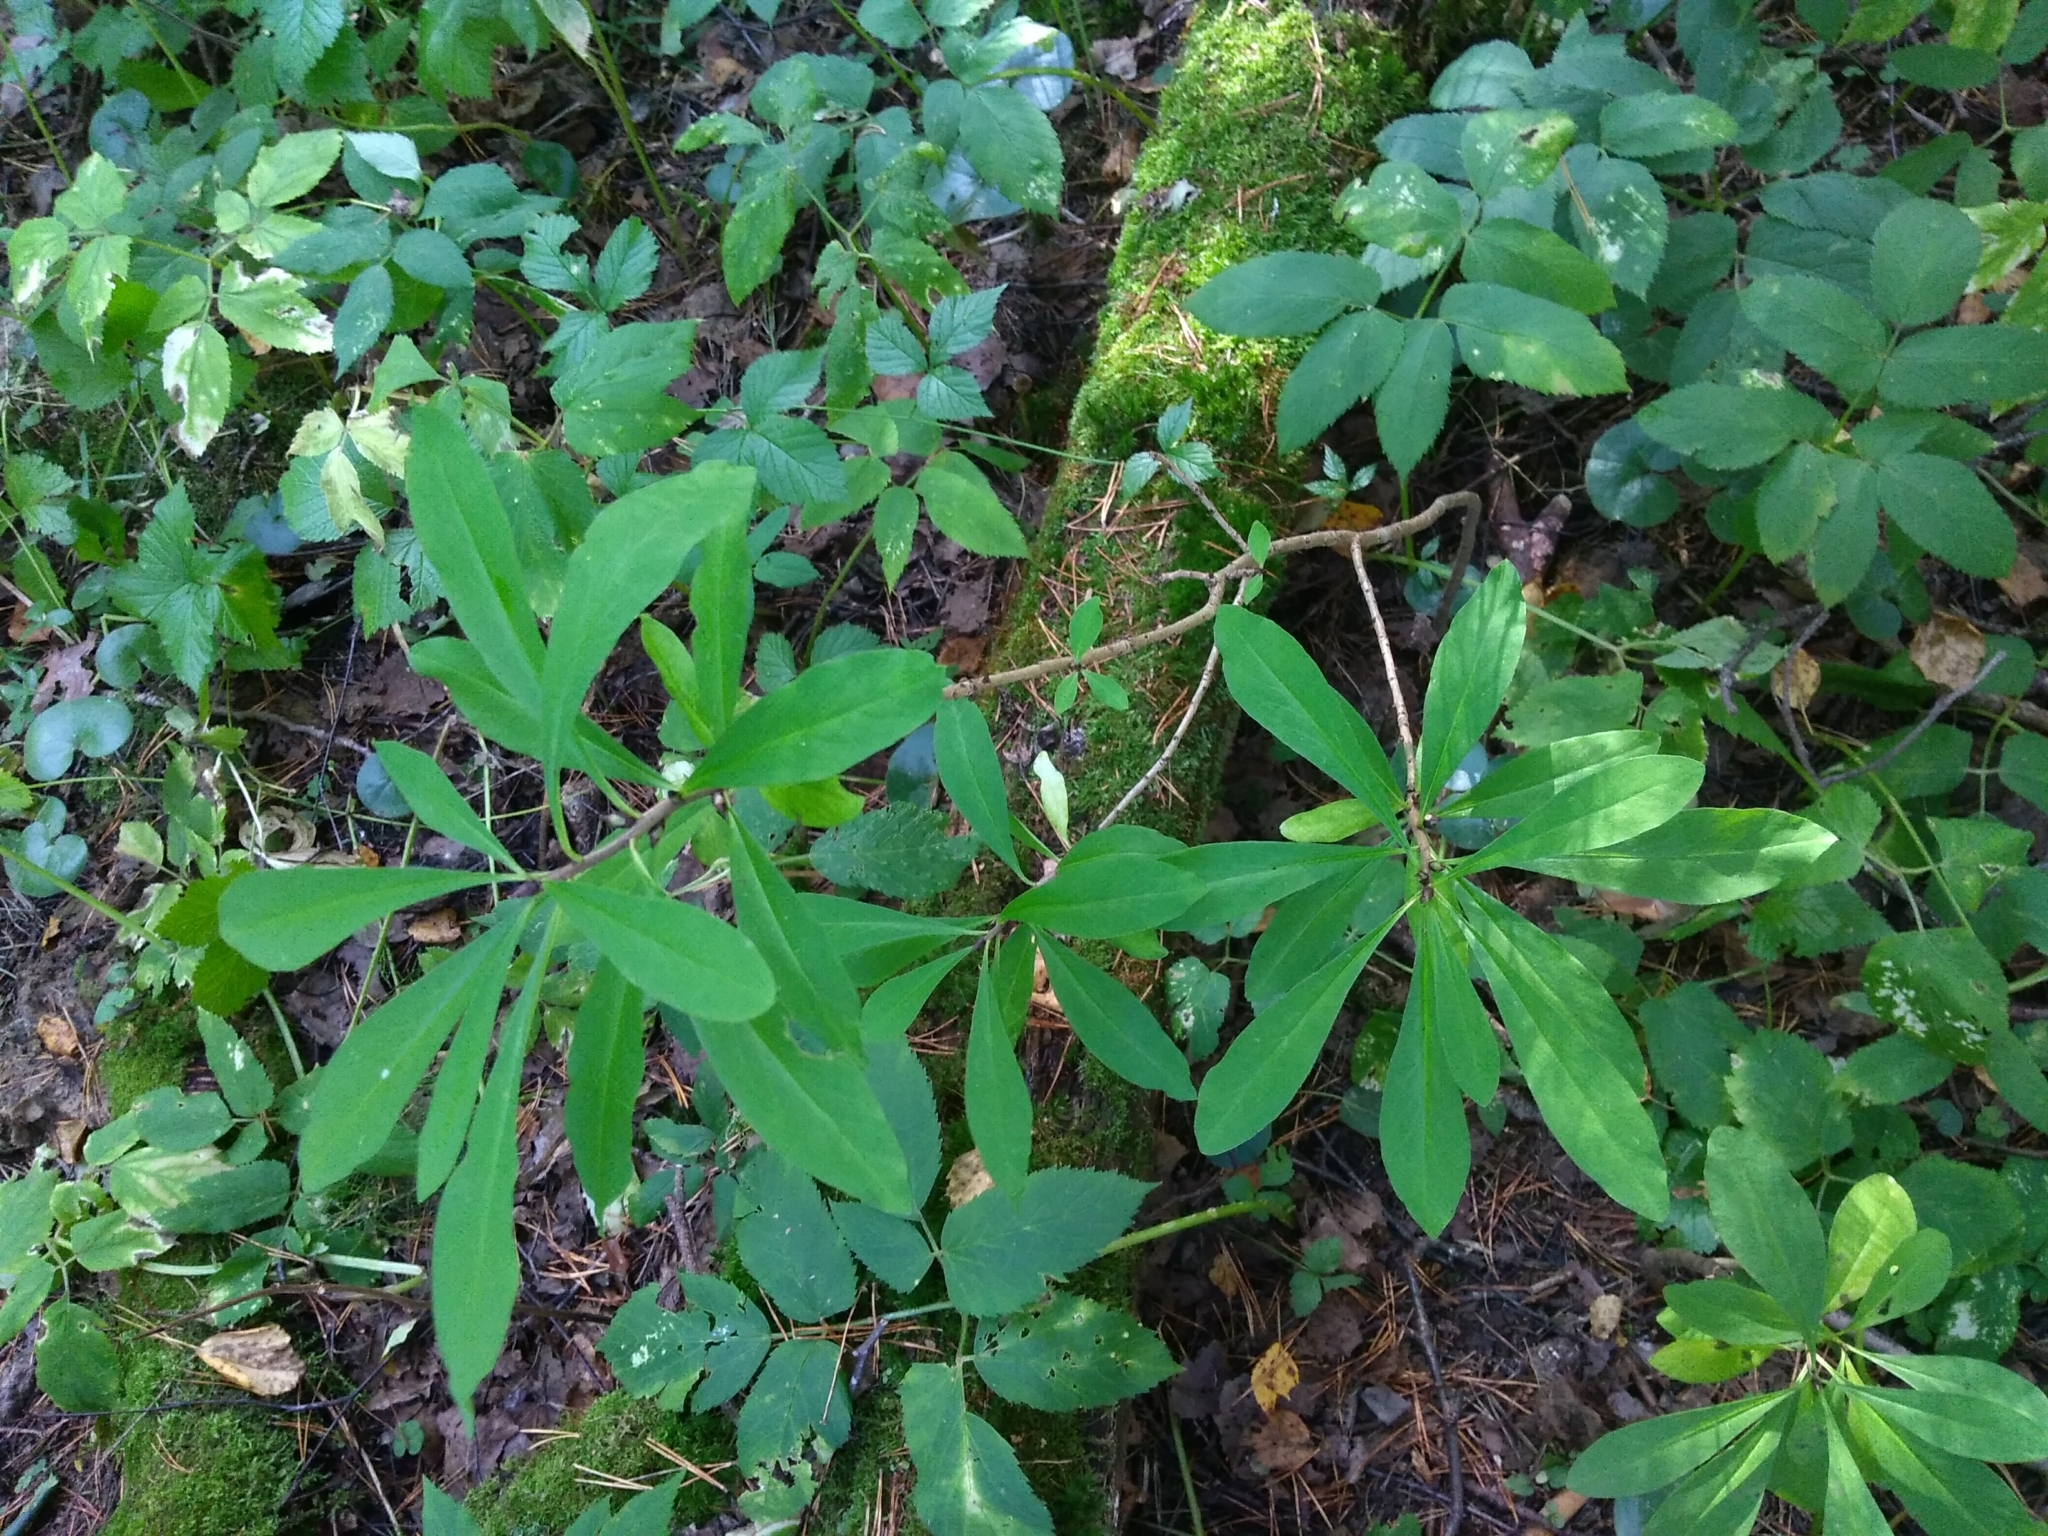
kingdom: Plantae
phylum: Tracheophyta
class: Magnoliopsida
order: Malvales
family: Thymelaeaceae
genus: Daphne
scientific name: Daphne mezereum
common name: Mezereon
